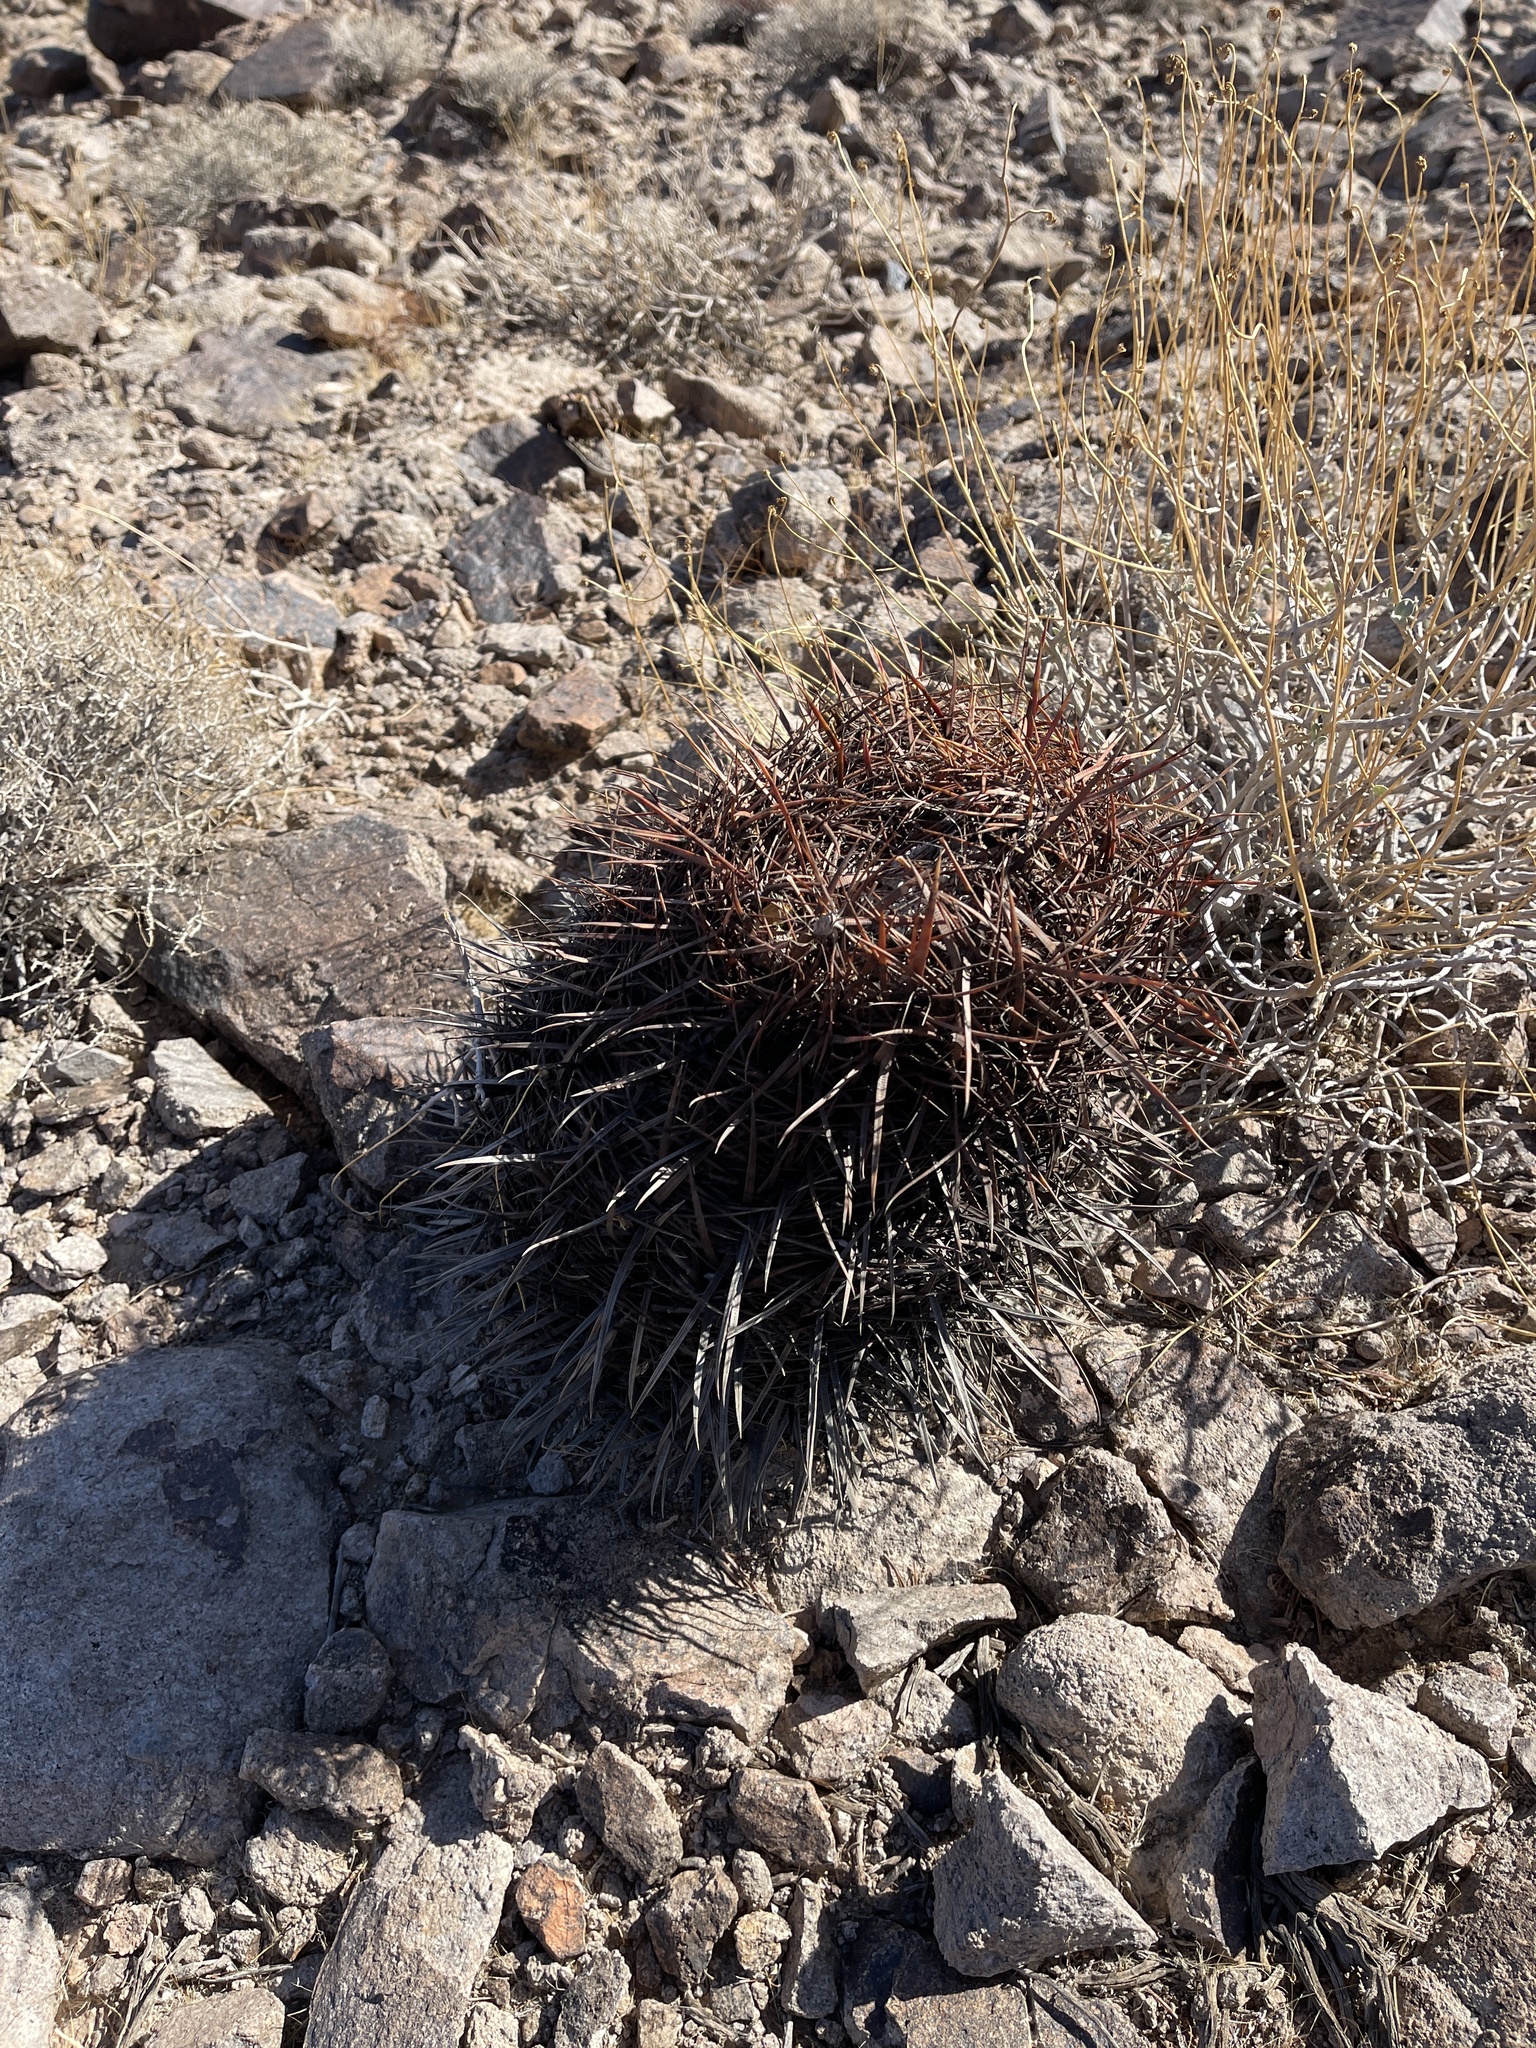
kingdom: Plantae
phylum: Tracheophyta
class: Magnoliopsida
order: Caryophyllales
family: Cactaceae
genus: Ferocactus
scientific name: Ferocactus cylindraceus
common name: California barrel cactus
